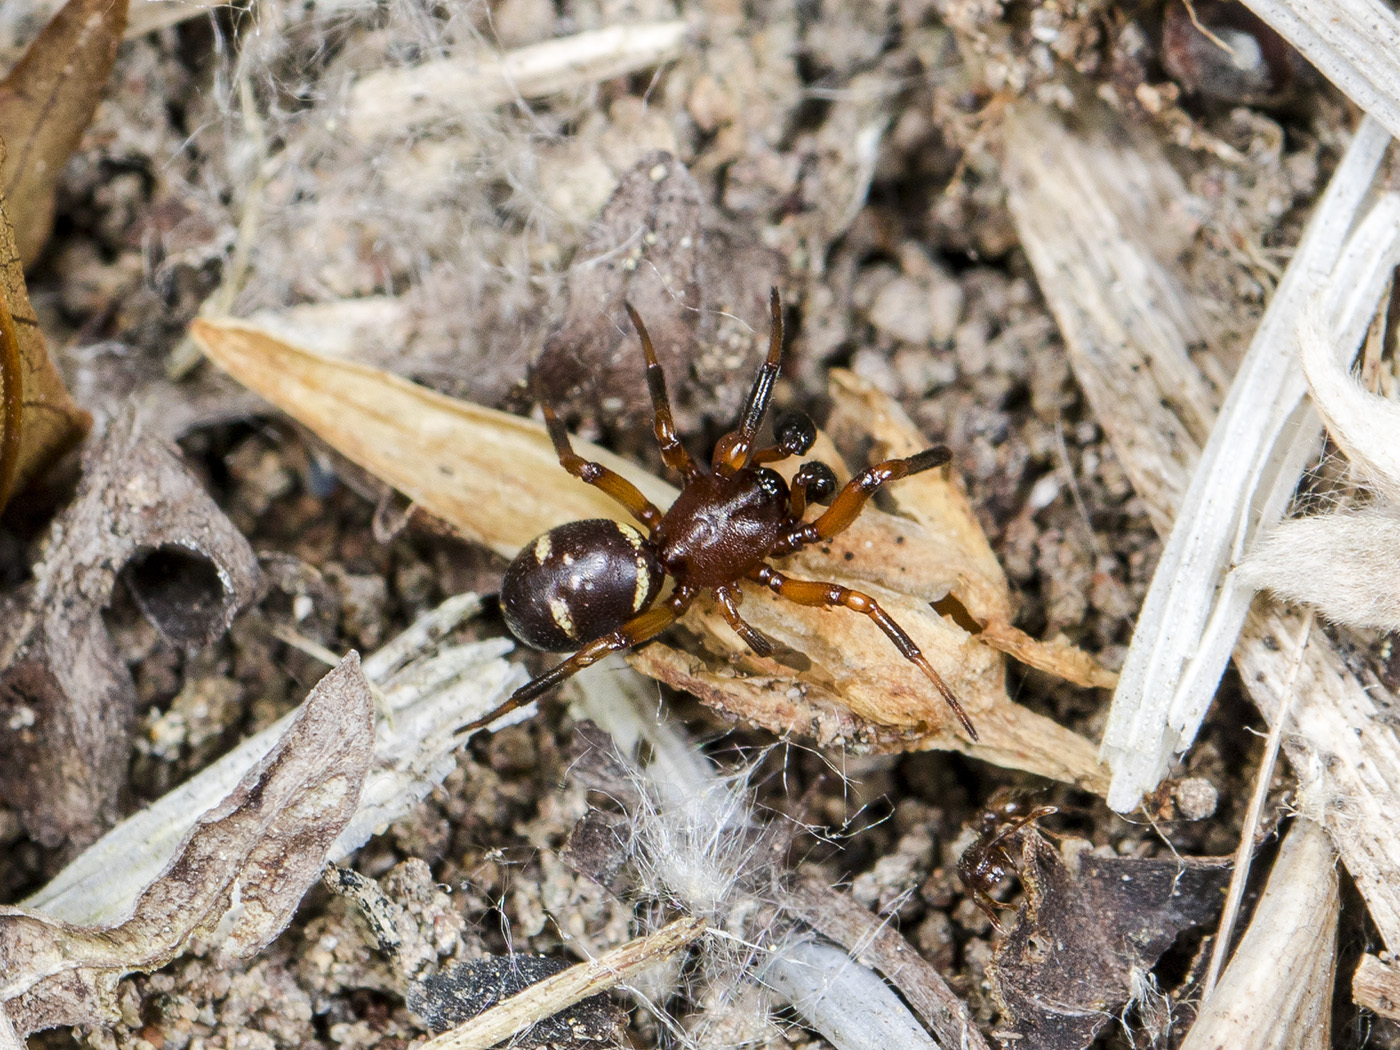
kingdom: Animalia
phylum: Arthropoda
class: Arachnida
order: Araneae
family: Theridiidae
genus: Asagena
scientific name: Asagena phalerata
